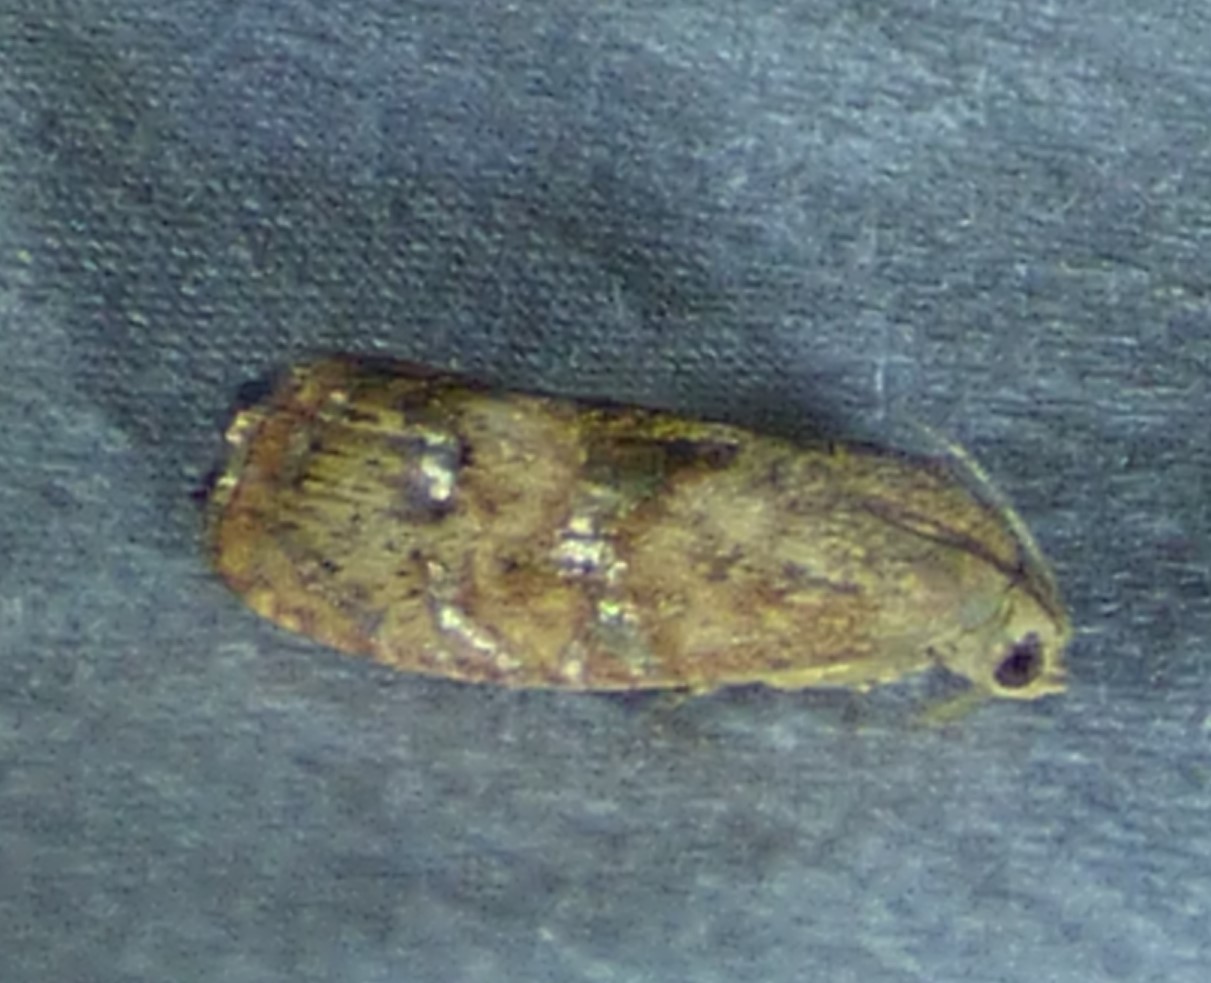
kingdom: Animalia
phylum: Arthropoda
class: Insecta
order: Lepidoptera
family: Tortricidae
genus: Cydia
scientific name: Cydia latiferreana
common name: Filbertworm moth
